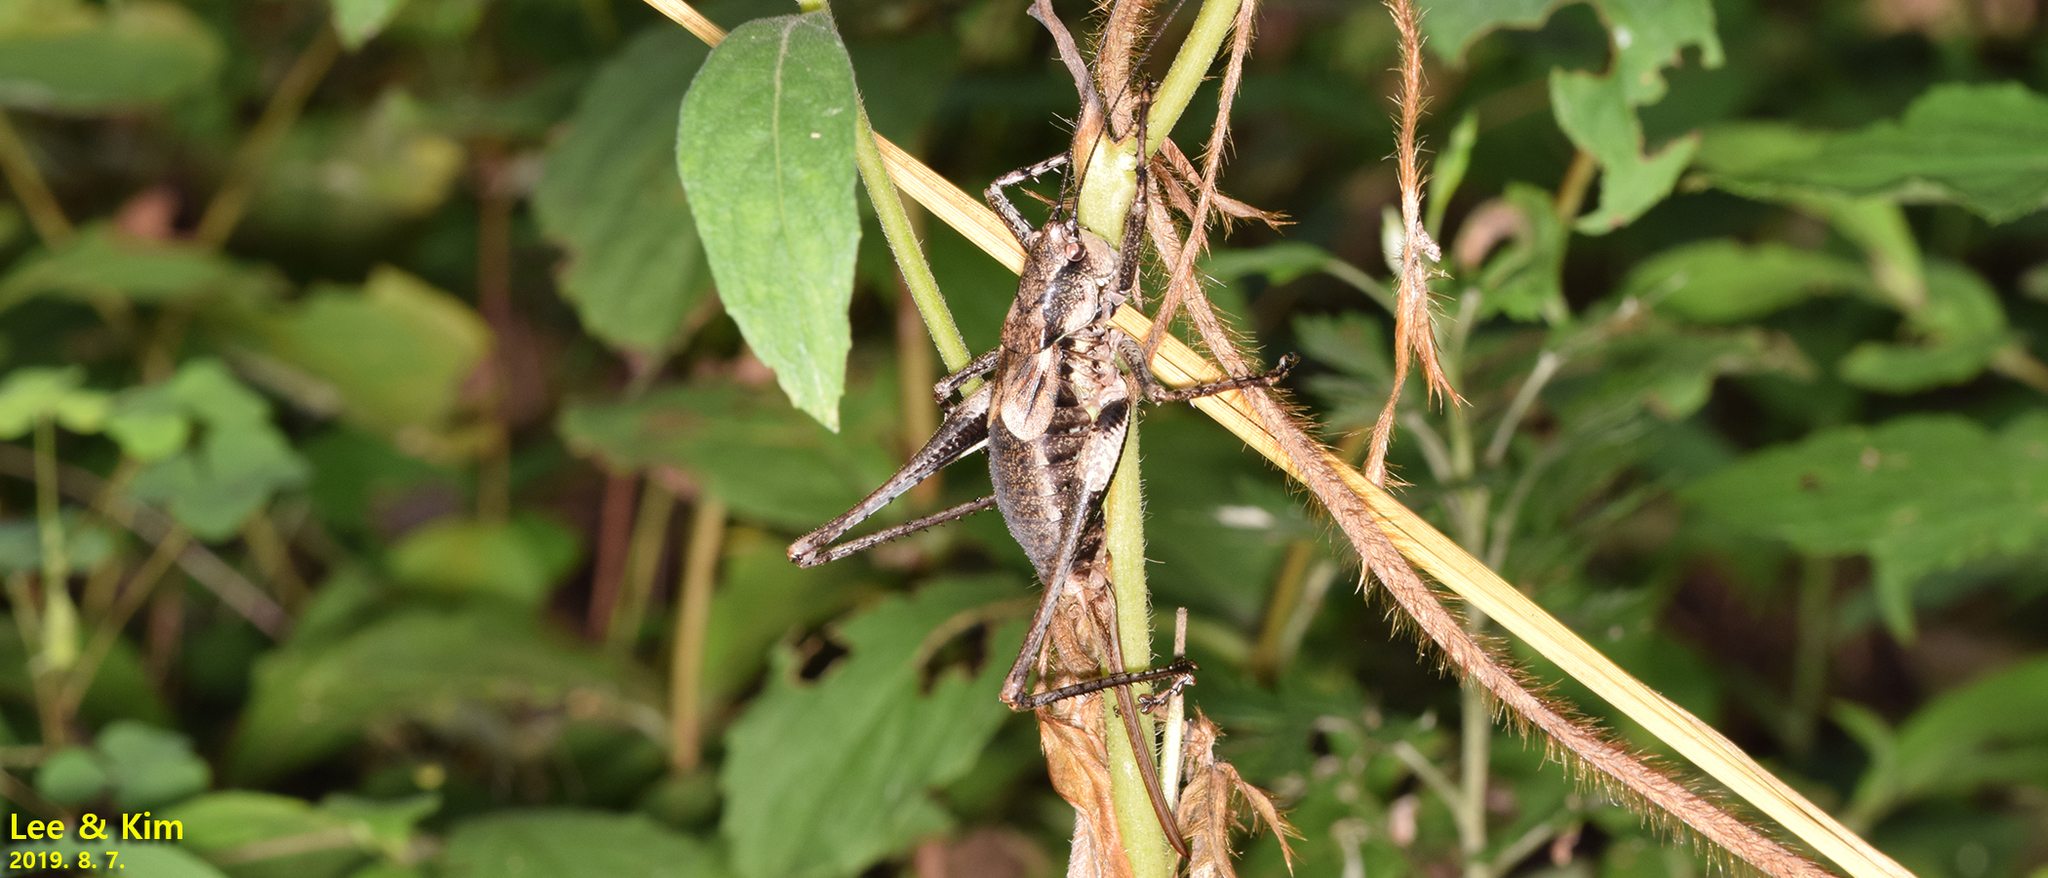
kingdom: Animalia
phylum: Arthropoda
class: Insecta
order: Orthoptera
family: Tettigoniidae
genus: Paratlanticus
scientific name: Paratlanticus ussuriensis
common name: Ussur brown katydid
